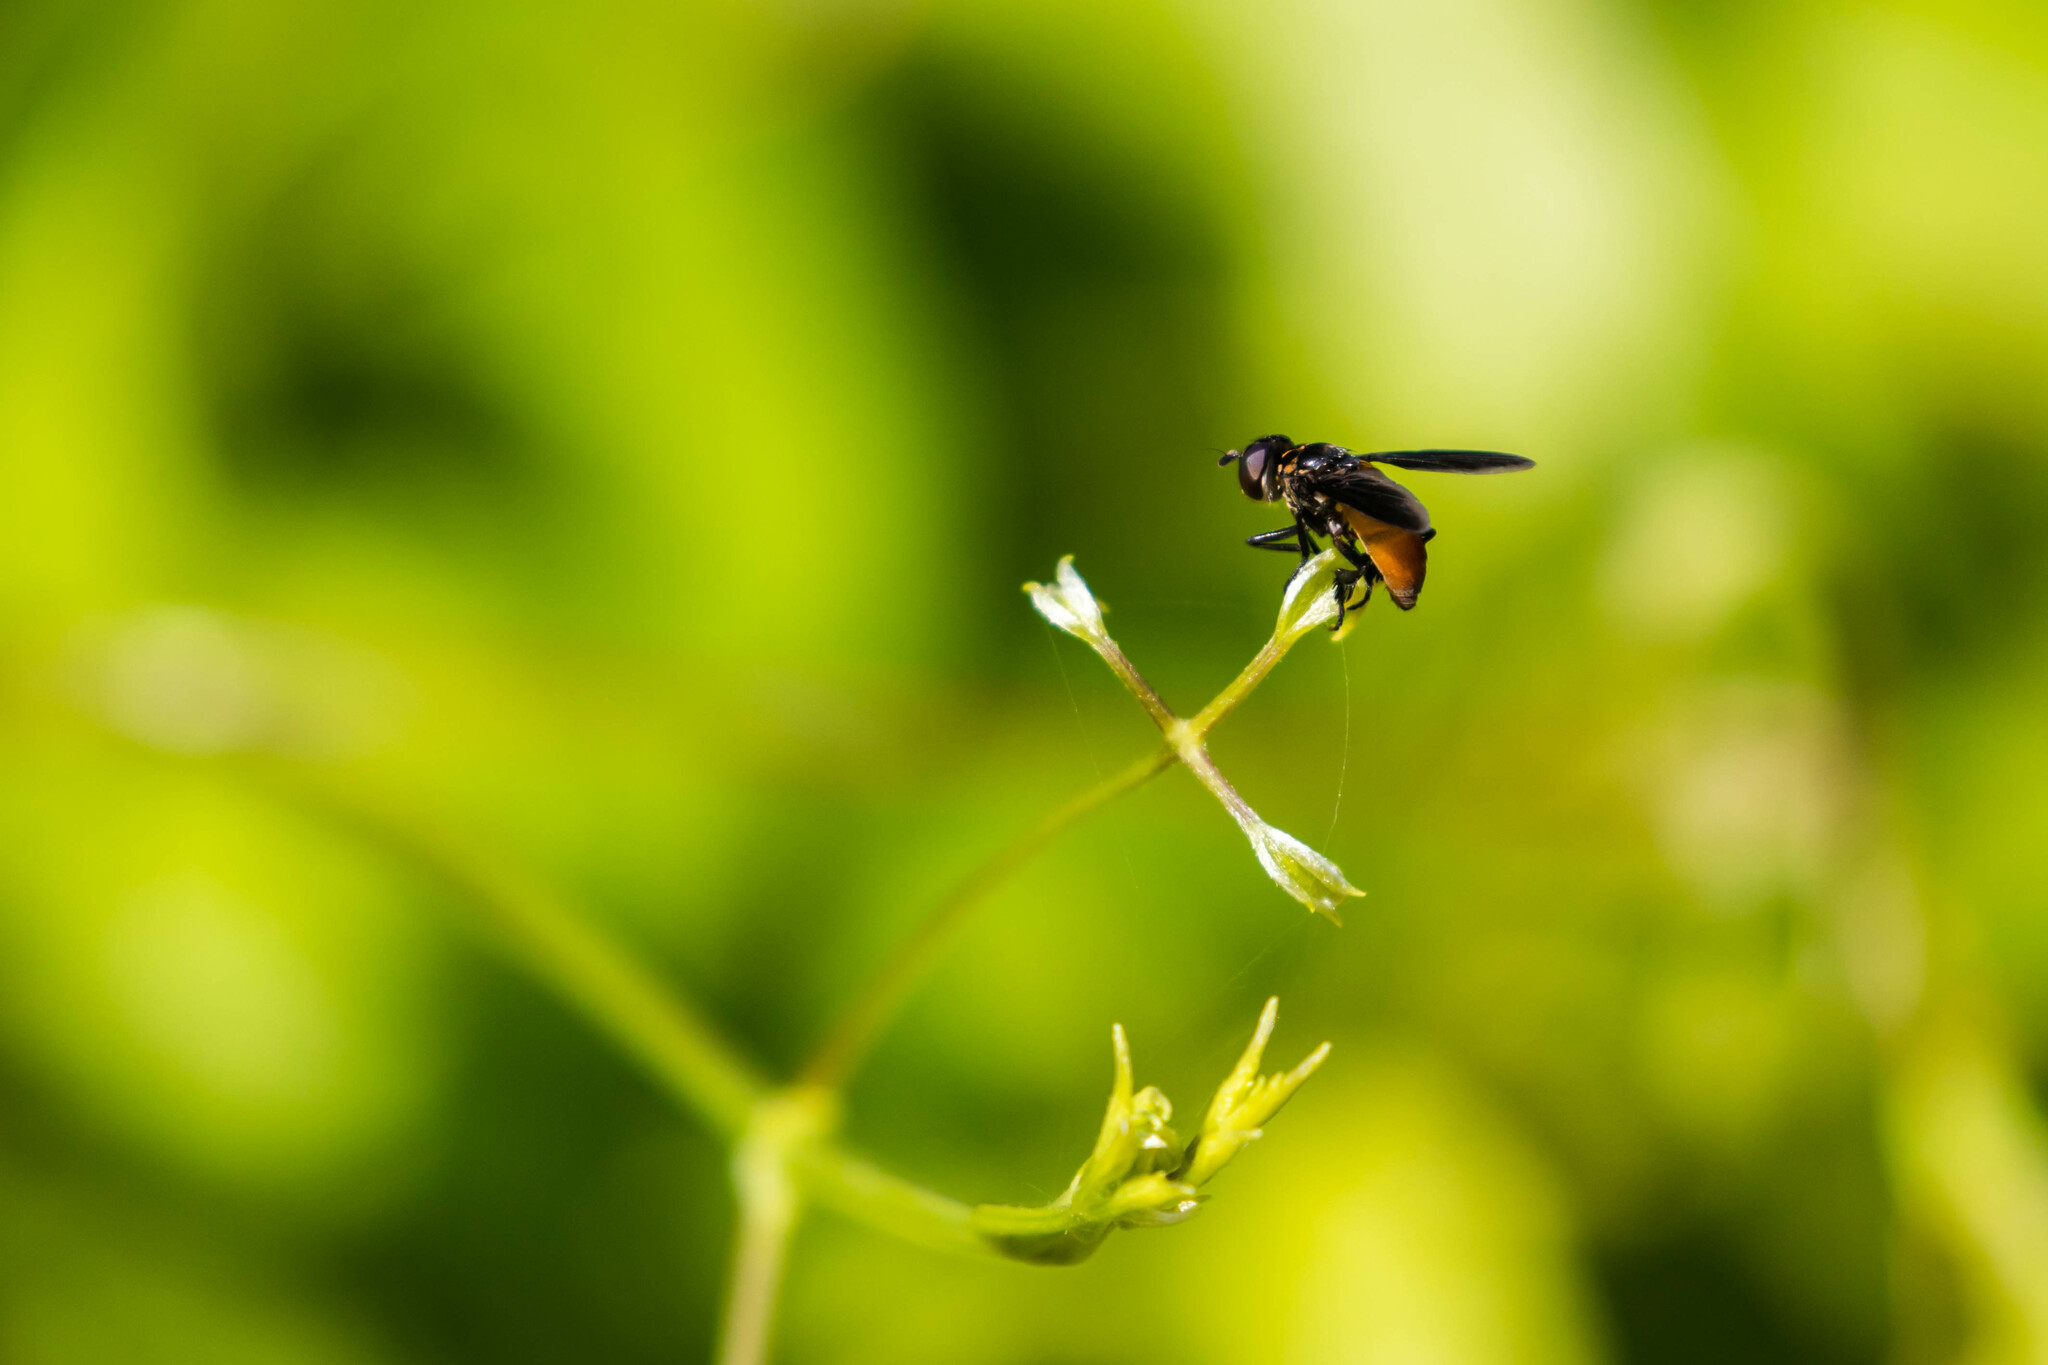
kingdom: Animalia
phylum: Arthropoda
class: Insecta
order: Diptera
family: Tachinidae
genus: Trichopoda
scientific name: Trichopoda pennipes
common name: Tachinid fly
